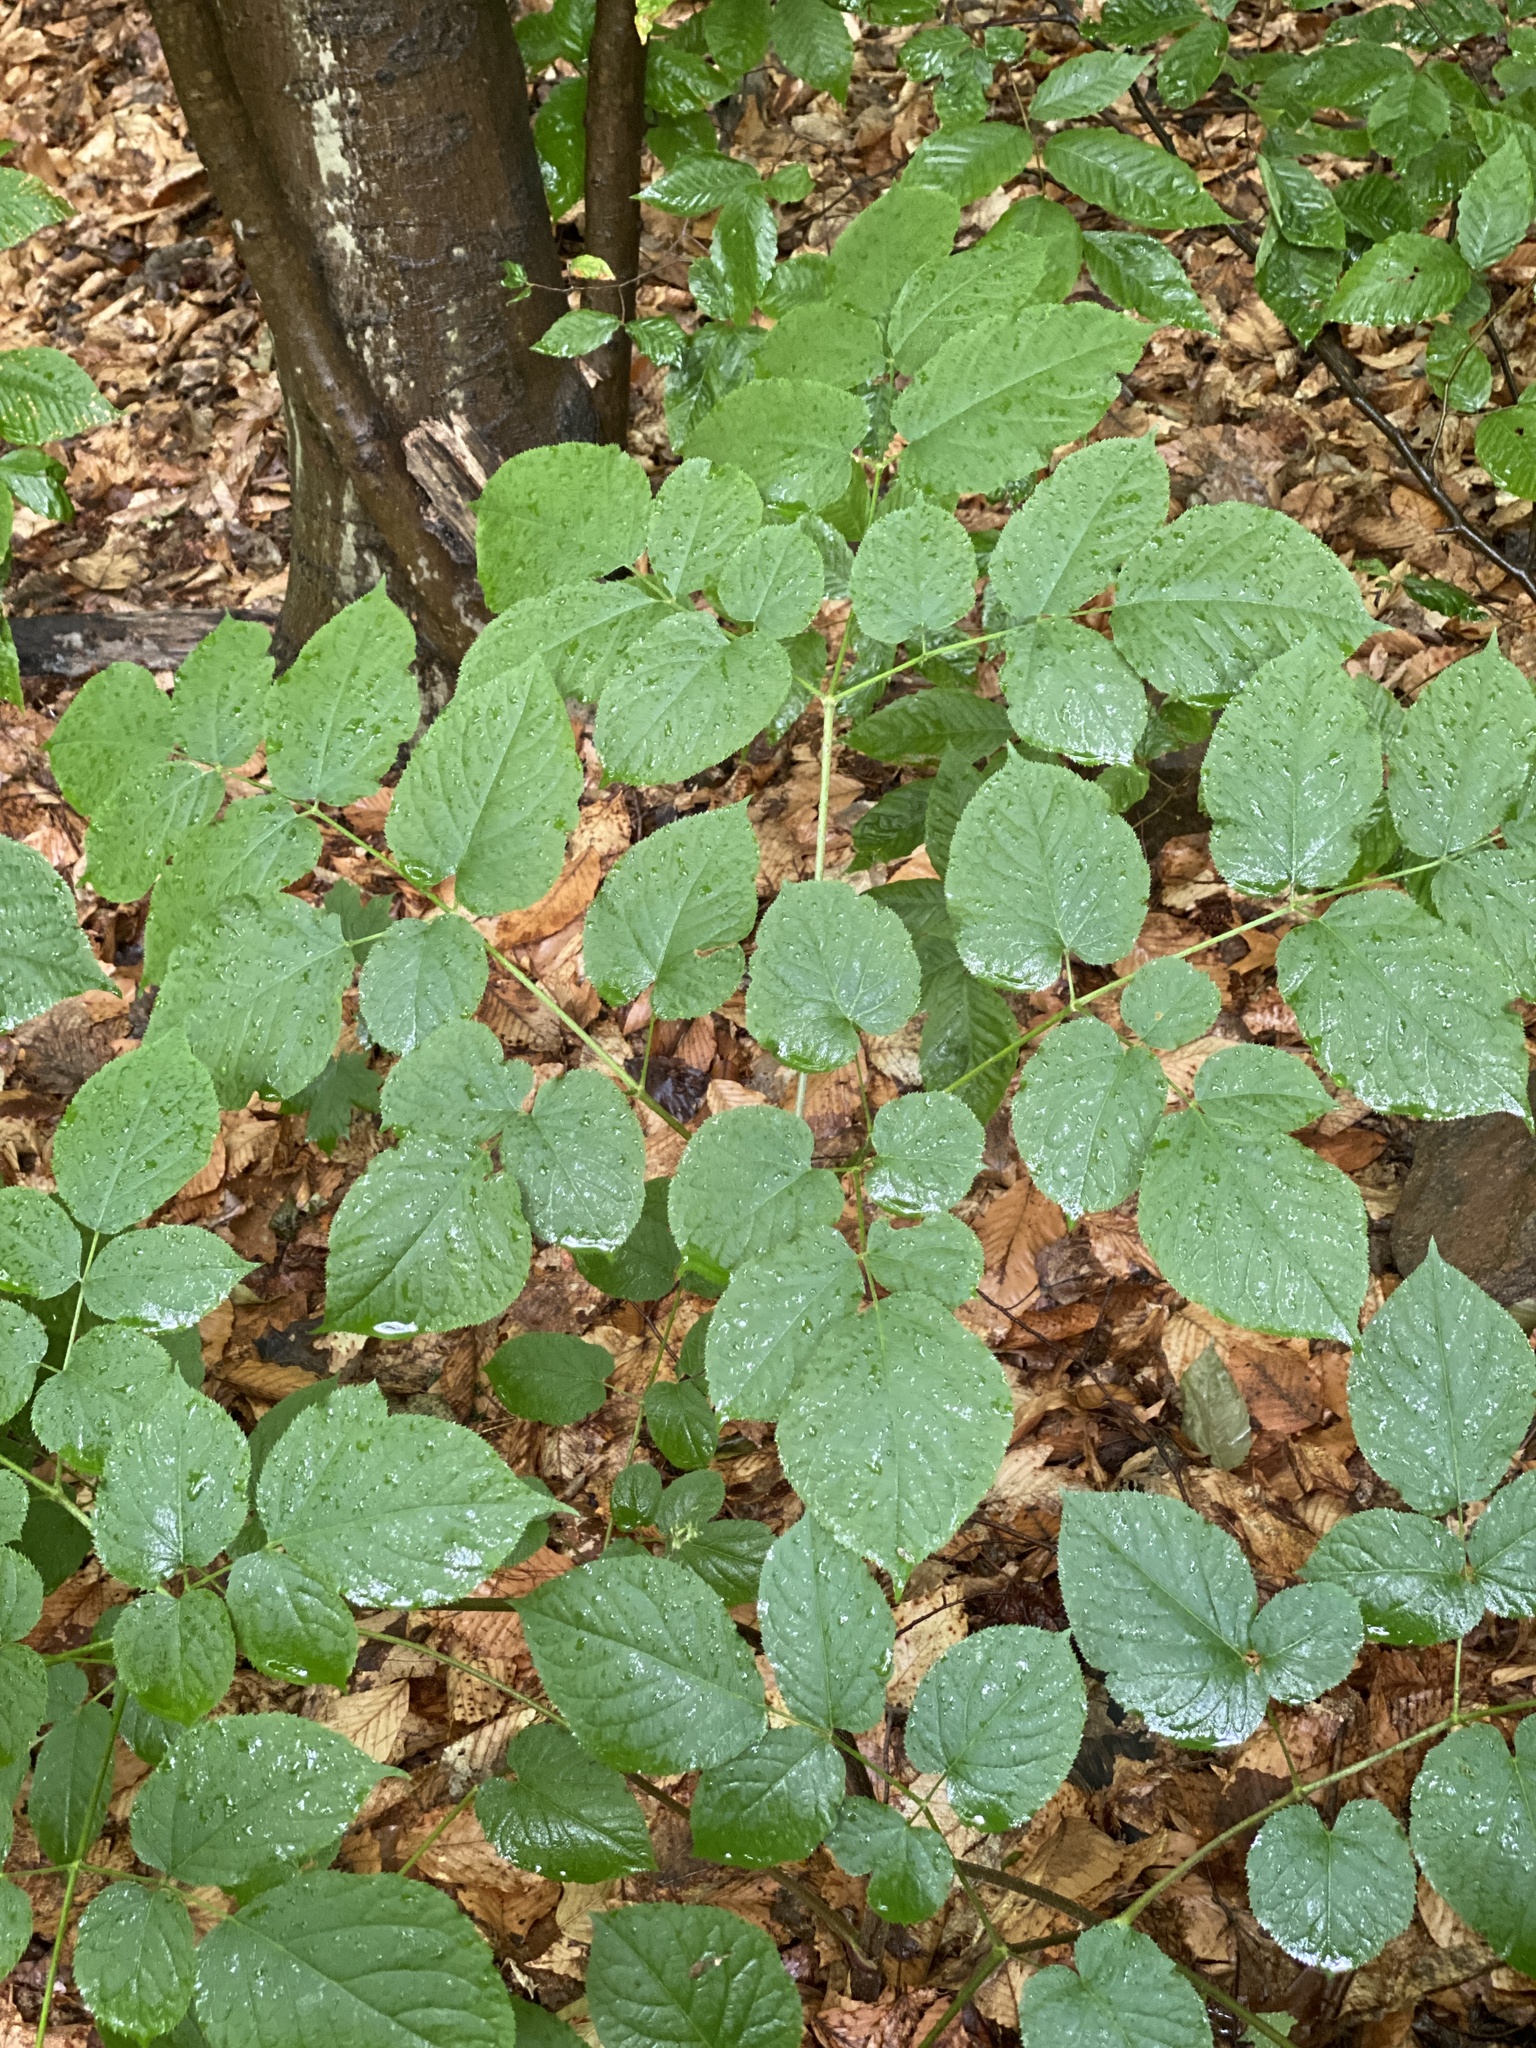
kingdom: Plantae
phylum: Tracheophyta
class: Magnoliopsida
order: Apiales
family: Araliaceae
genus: Aralia
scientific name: Aralia racemosa
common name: American-spikenard
